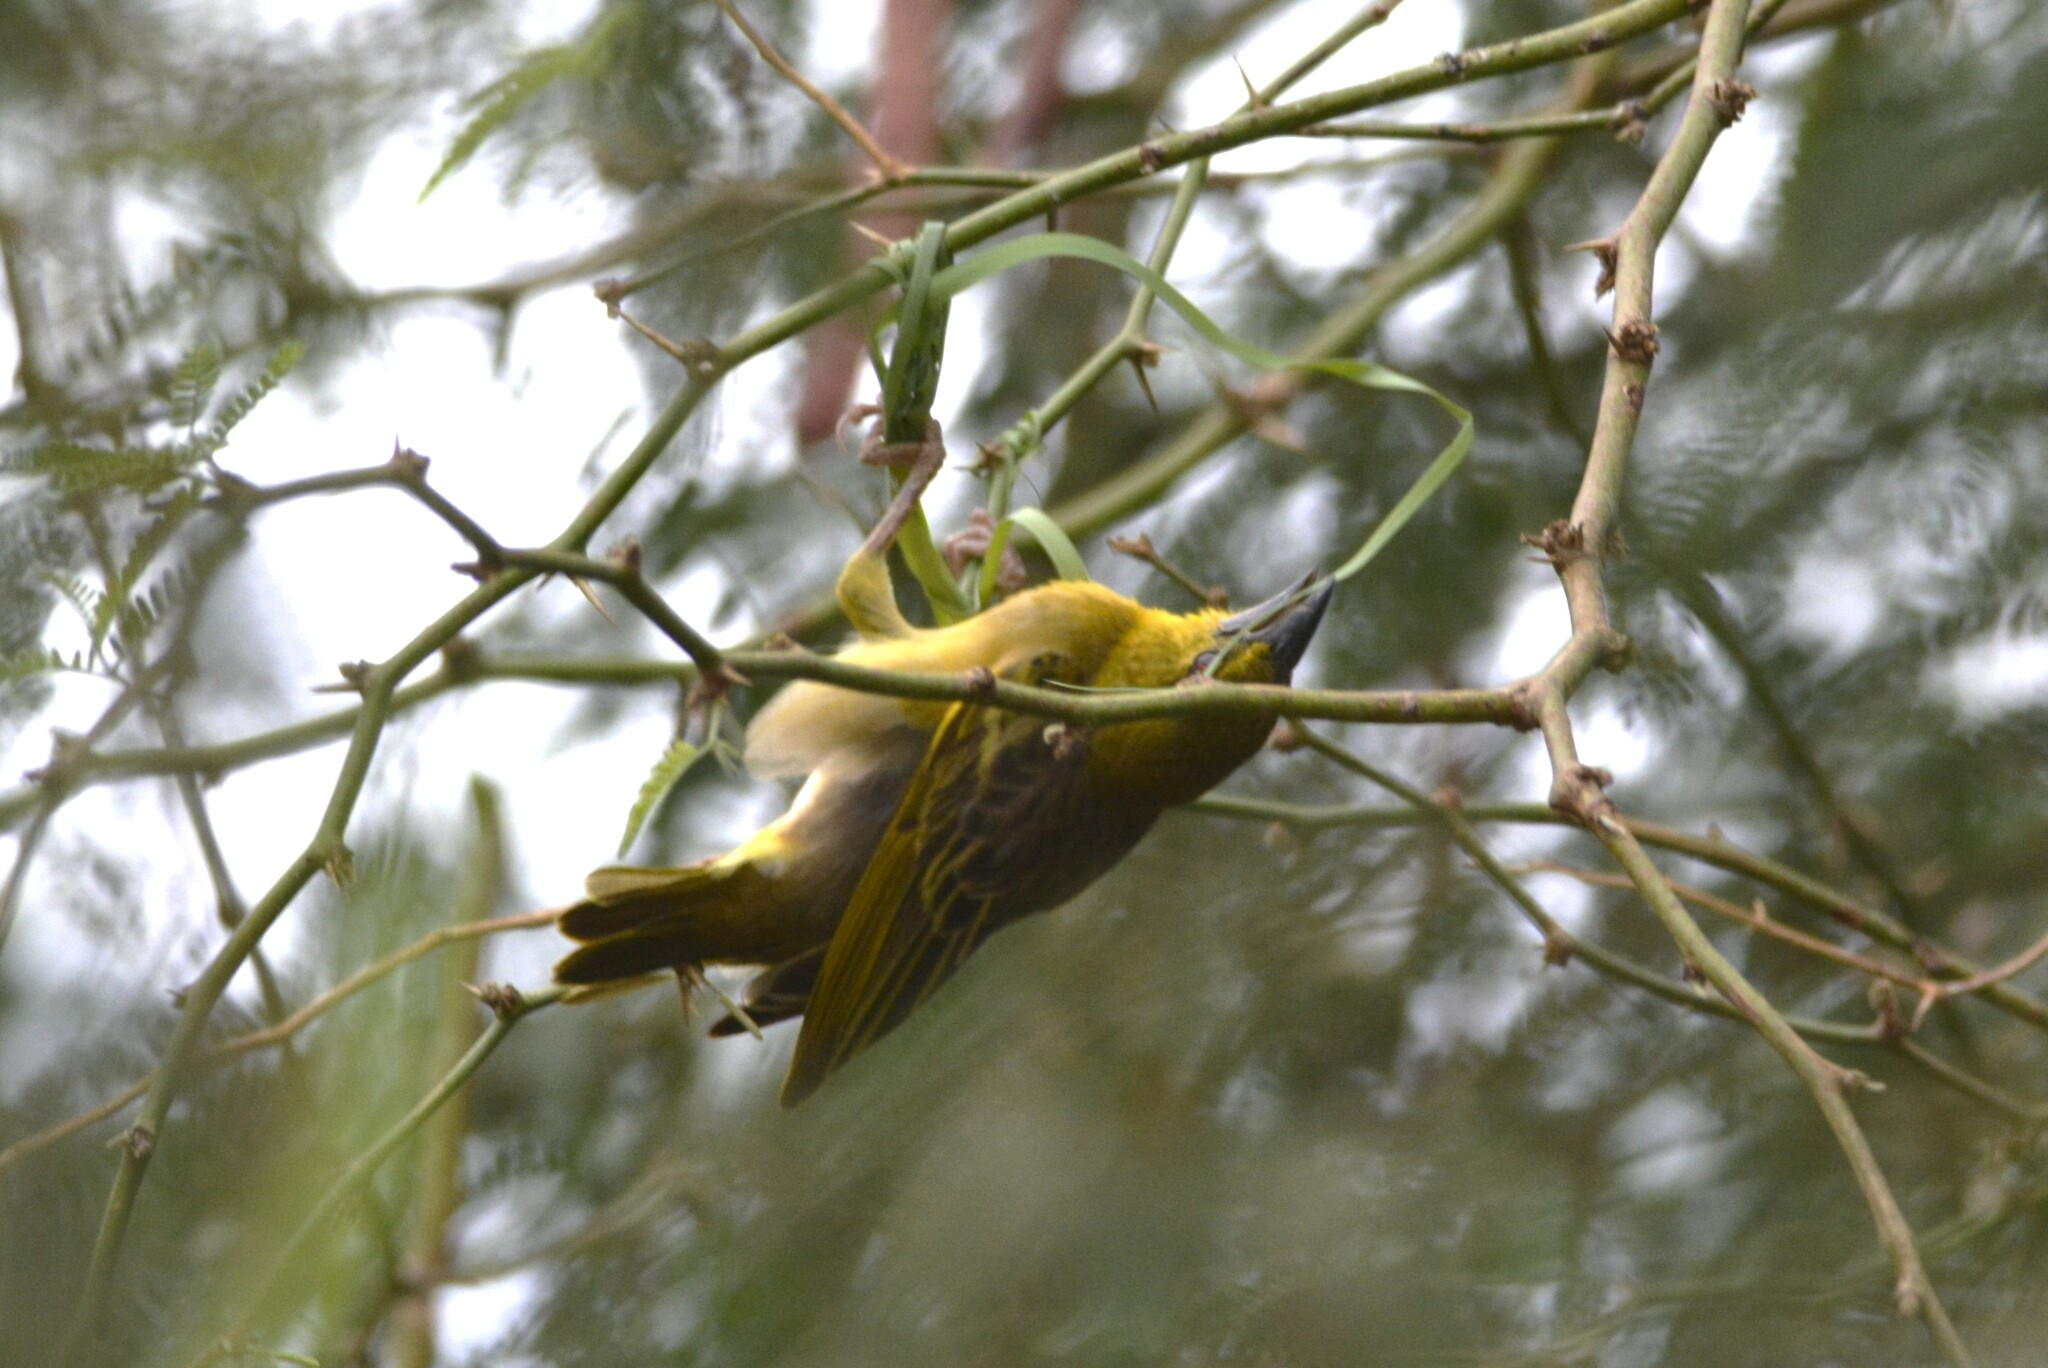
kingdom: Animalia
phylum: Chordata
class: Aves
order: Passeriformes
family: Ploceidae
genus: Ploceus
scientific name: Ploceus cucullatus
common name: Village weaver
